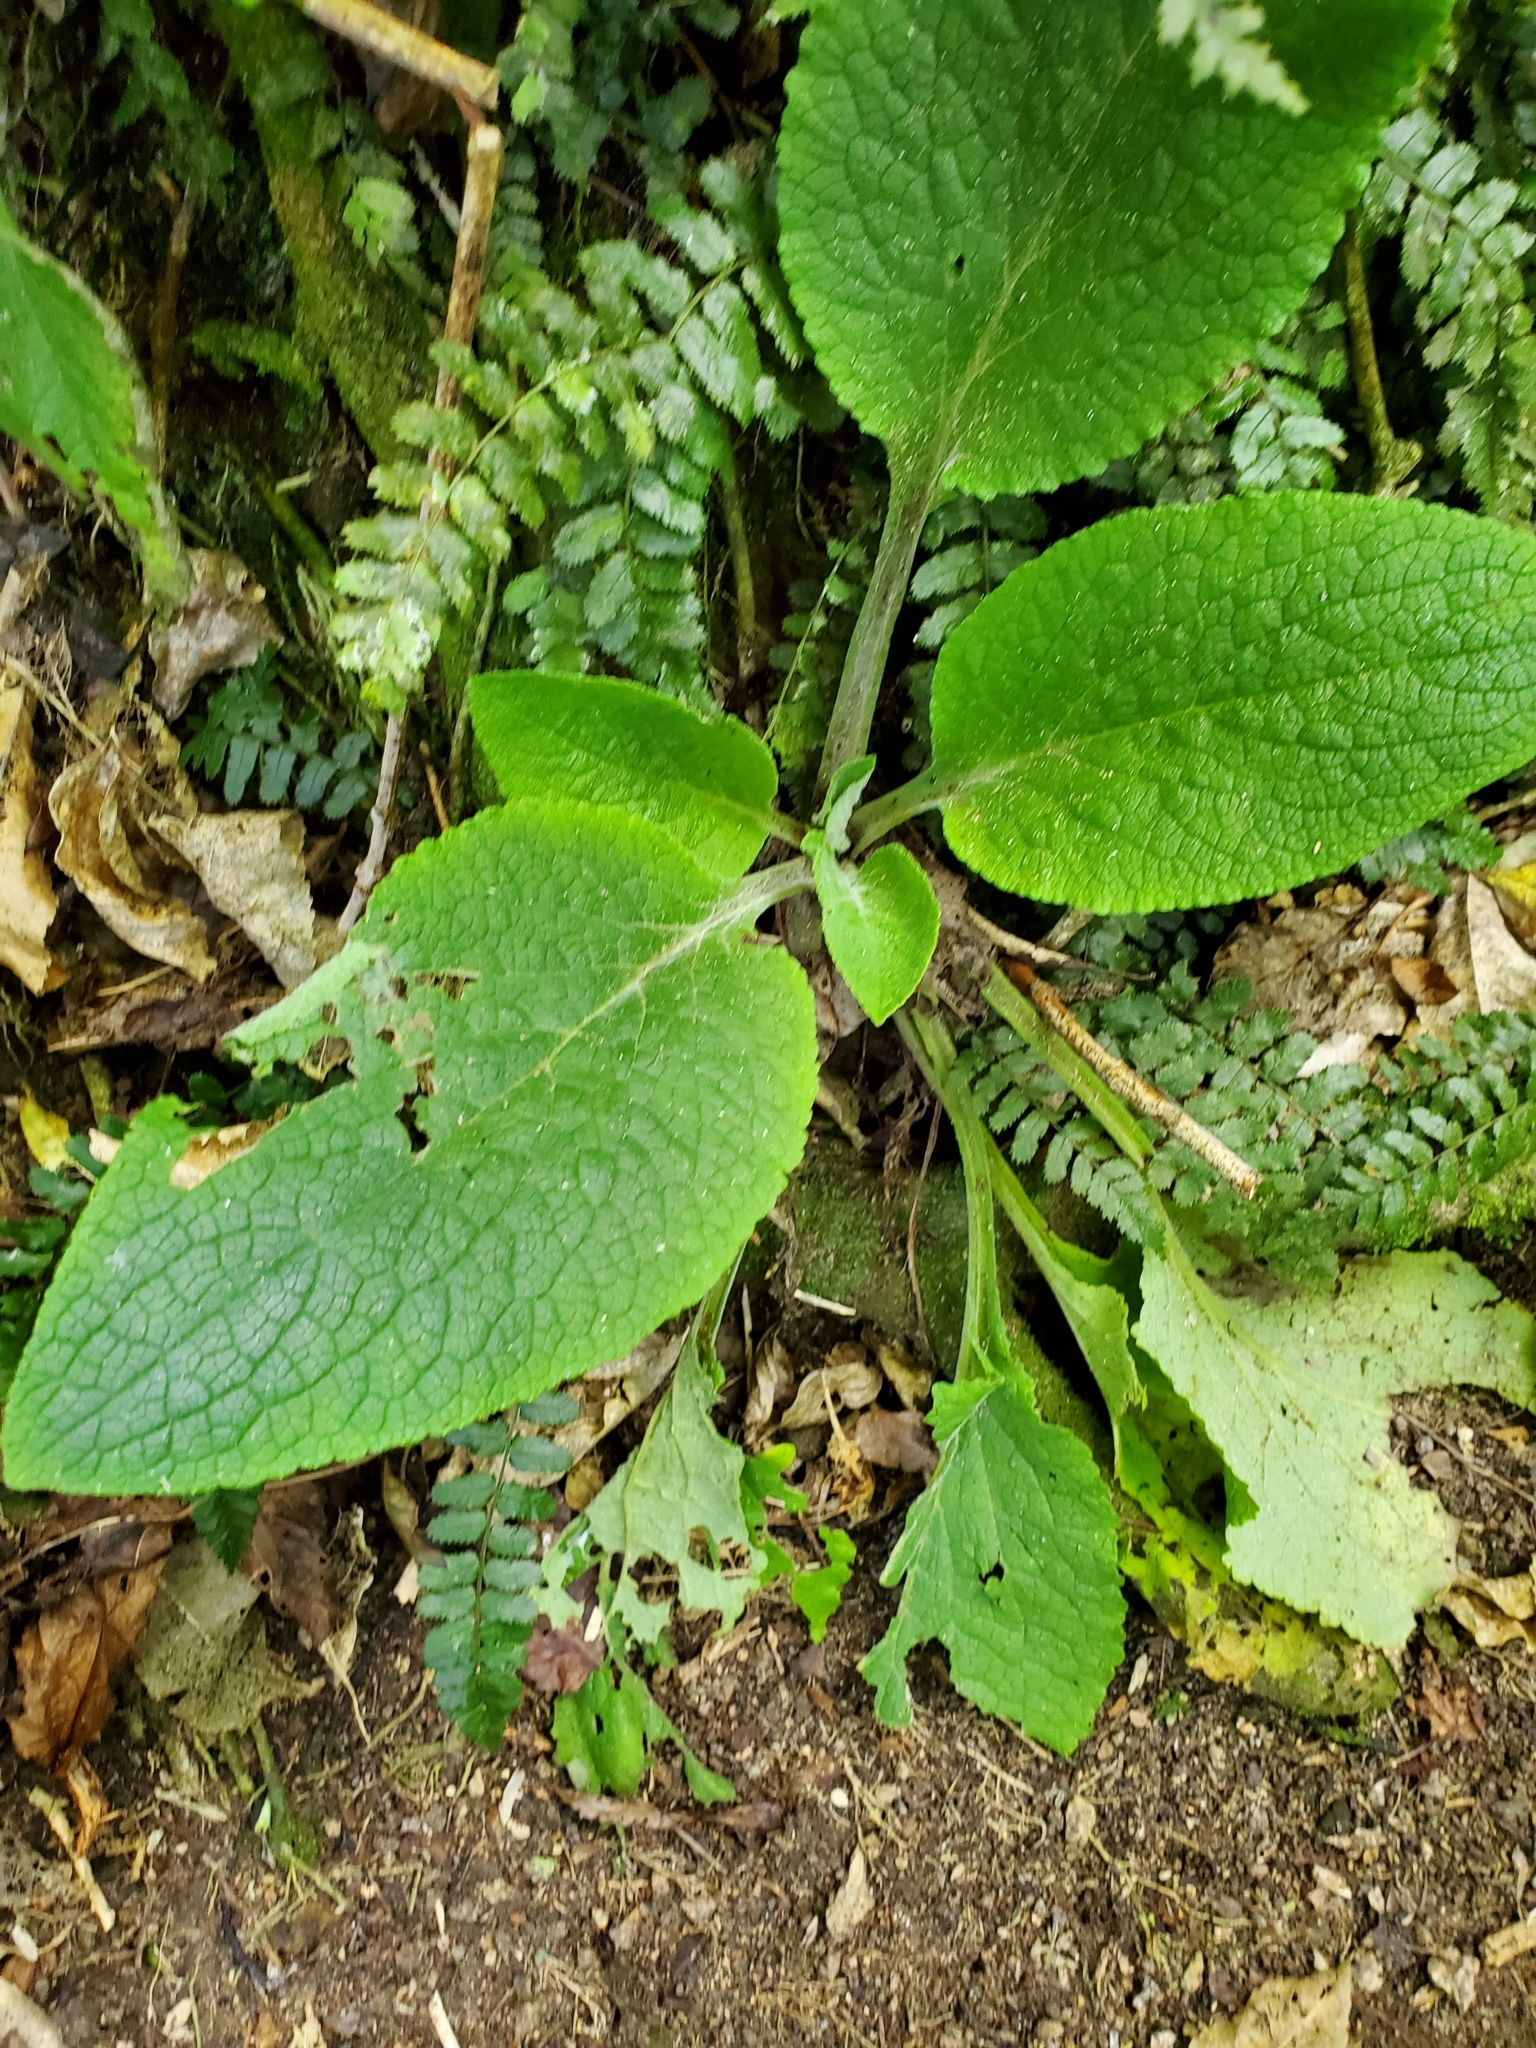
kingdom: Plantae
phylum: Tracheophyta
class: Magnoliopsida
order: Lamiales
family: Plantaginaceae
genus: Digitalis
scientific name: Digitalis purpurea
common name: Foxglove
